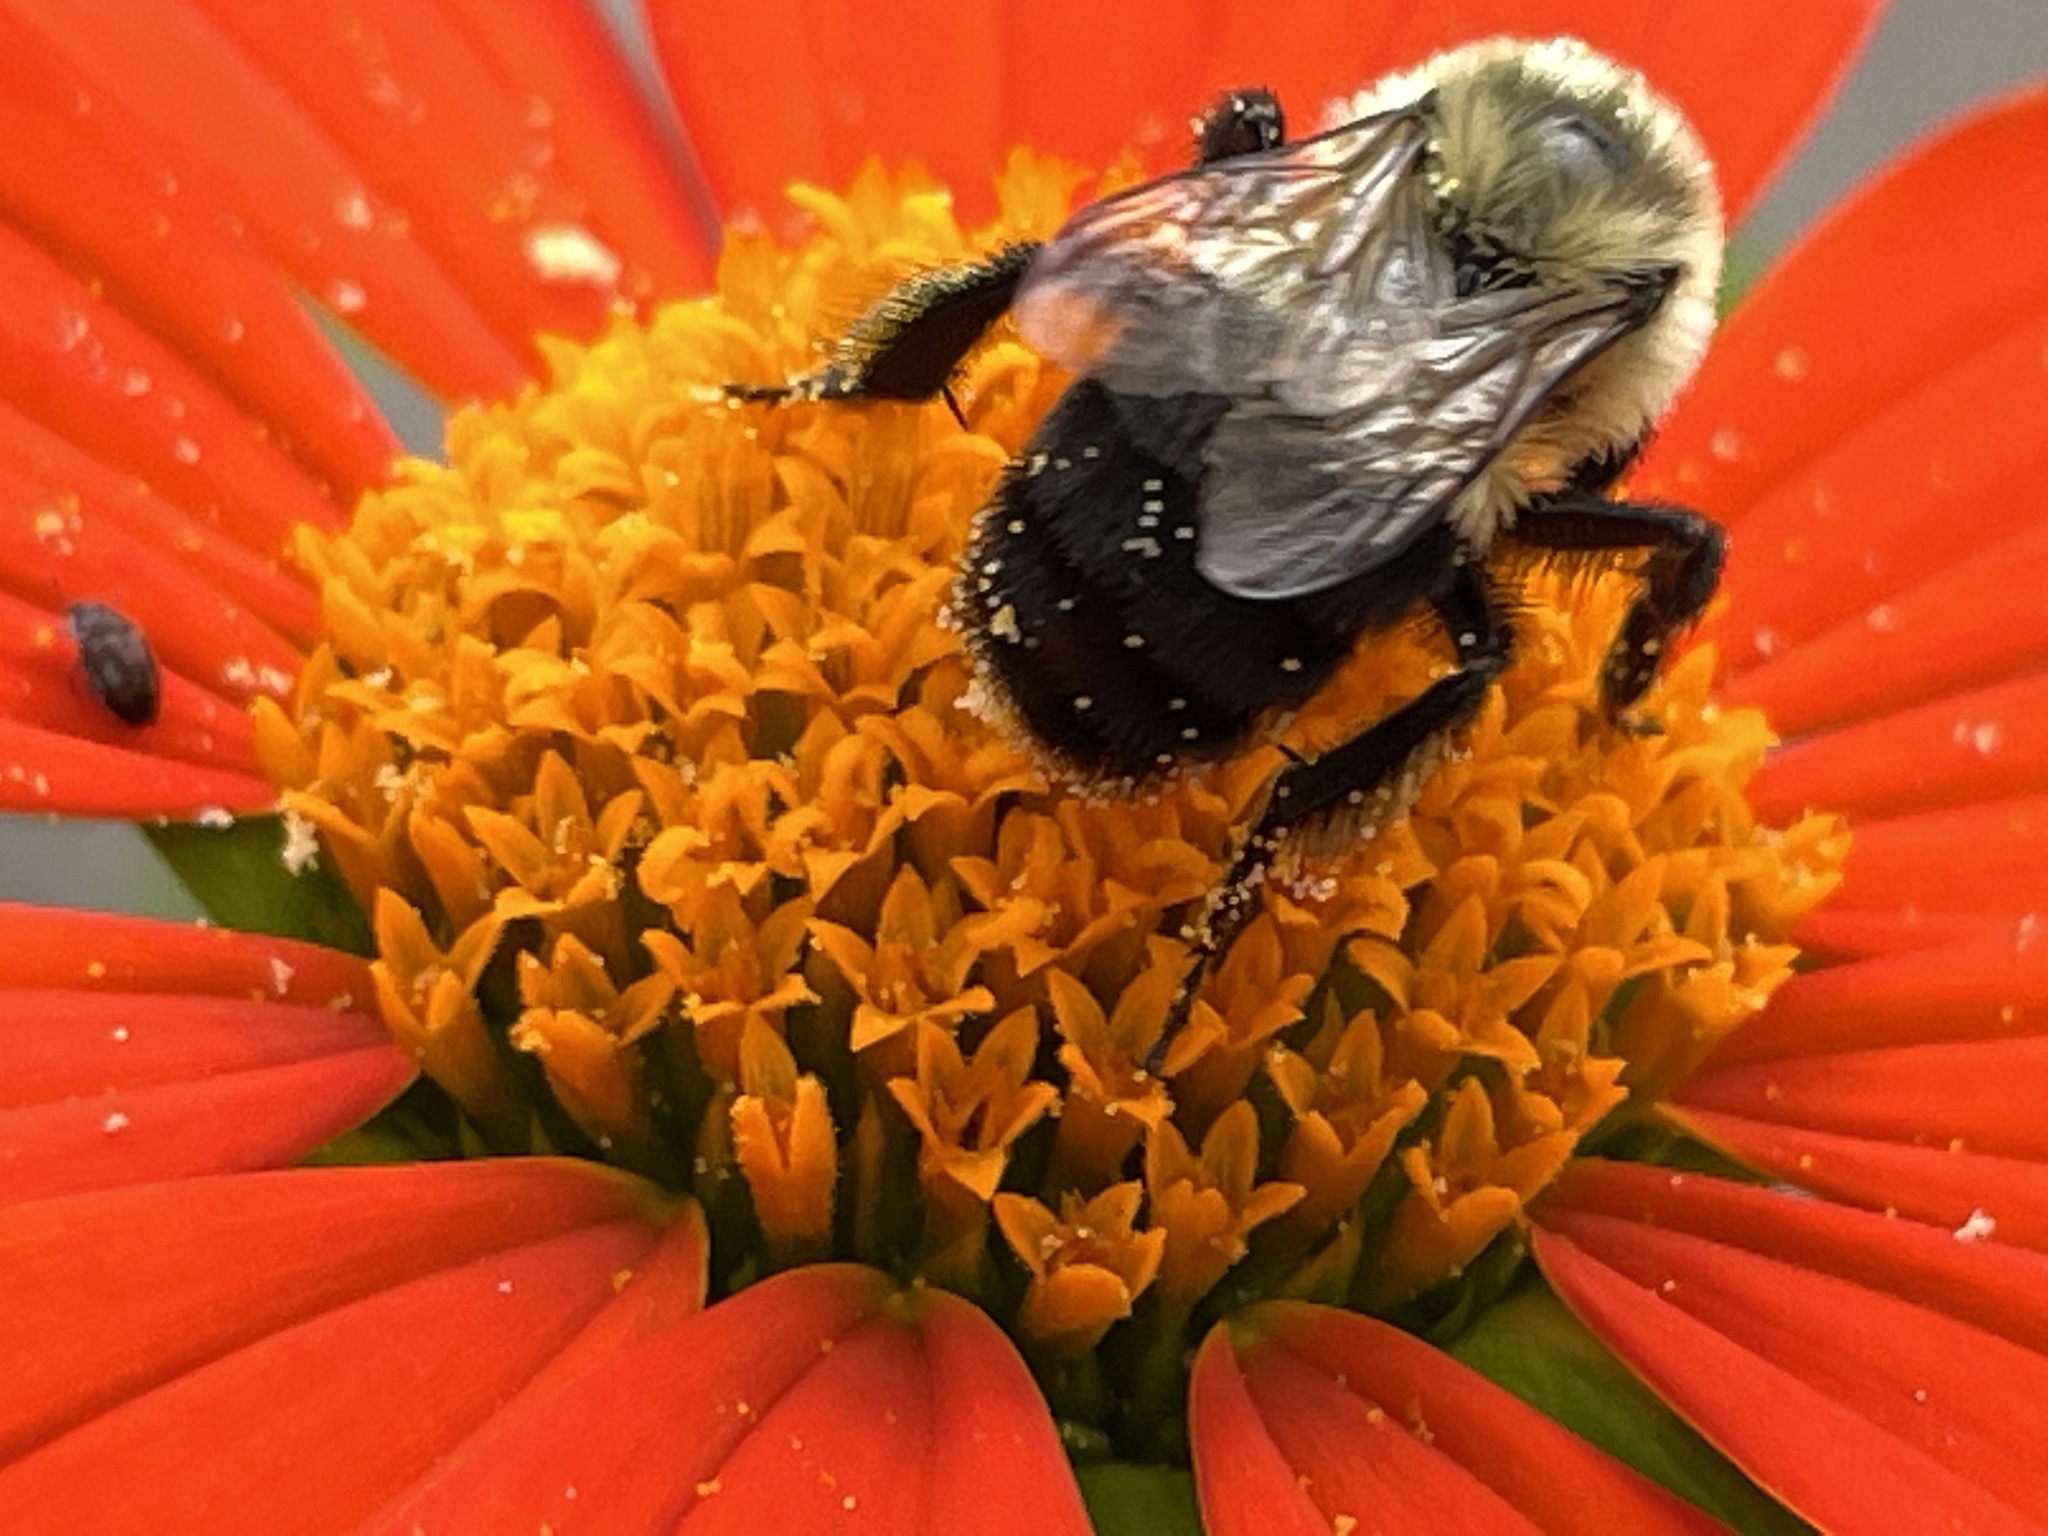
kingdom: Animalia
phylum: Arthropoda
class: Insecta
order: Hymenoptera
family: Apidae
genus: Bombus
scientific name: Bombus impatiens
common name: Common eastern bumble bee
